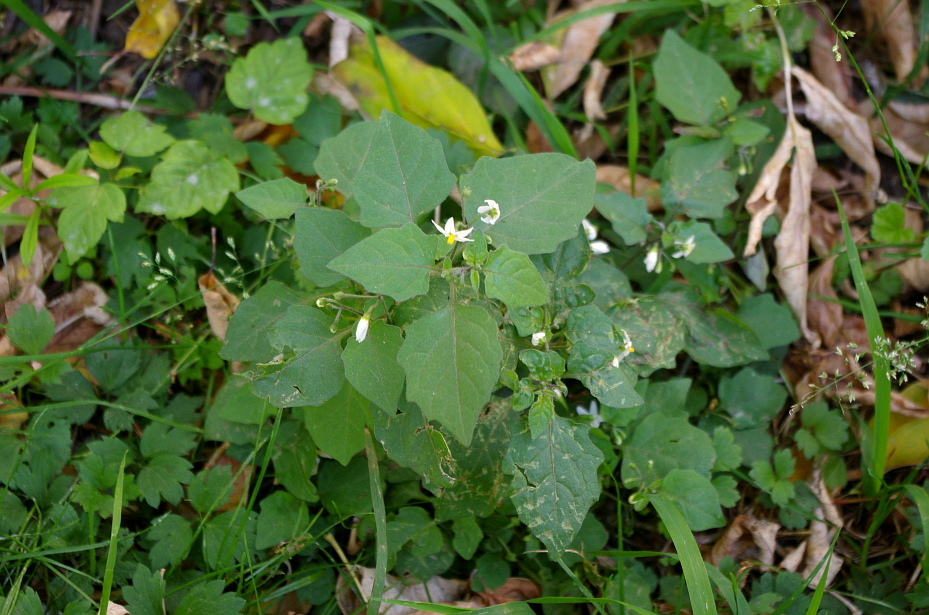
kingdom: Plantae
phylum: Tracheophyta
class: Magnoliopsida
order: Solanales
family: Solanaceae
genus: Solanum
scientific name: Solanum nigrum
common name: Black nightshade
